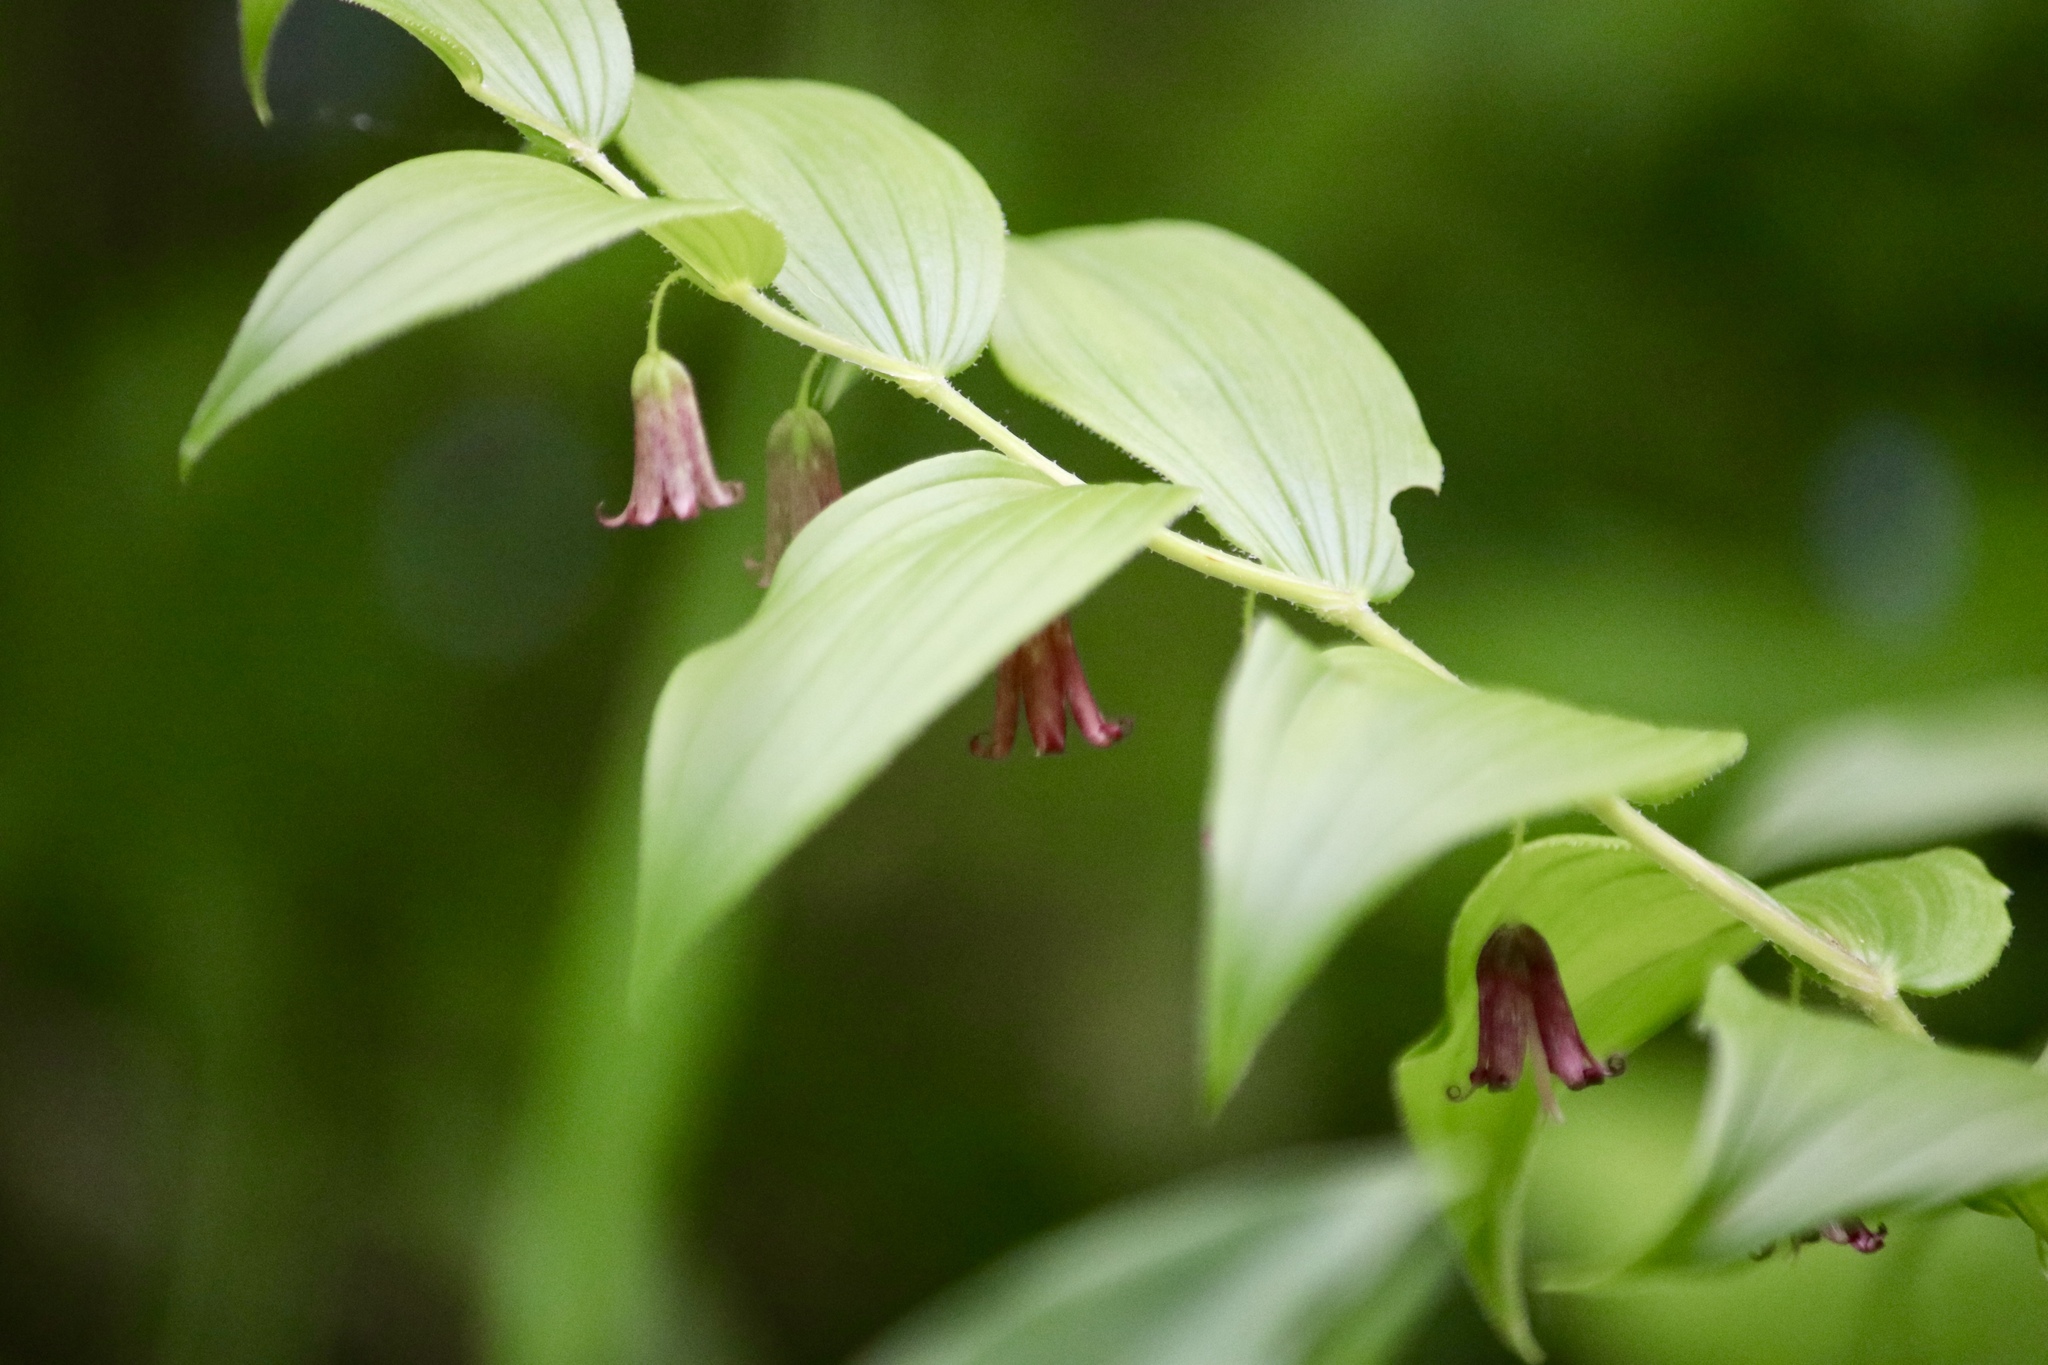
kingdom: Plantae
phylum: Tracheophyta
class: Liliopsida
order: Liliales
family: Liliaceae
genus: Streptopus
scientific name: Streptopus lanceolatus
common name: Rose mandarin
